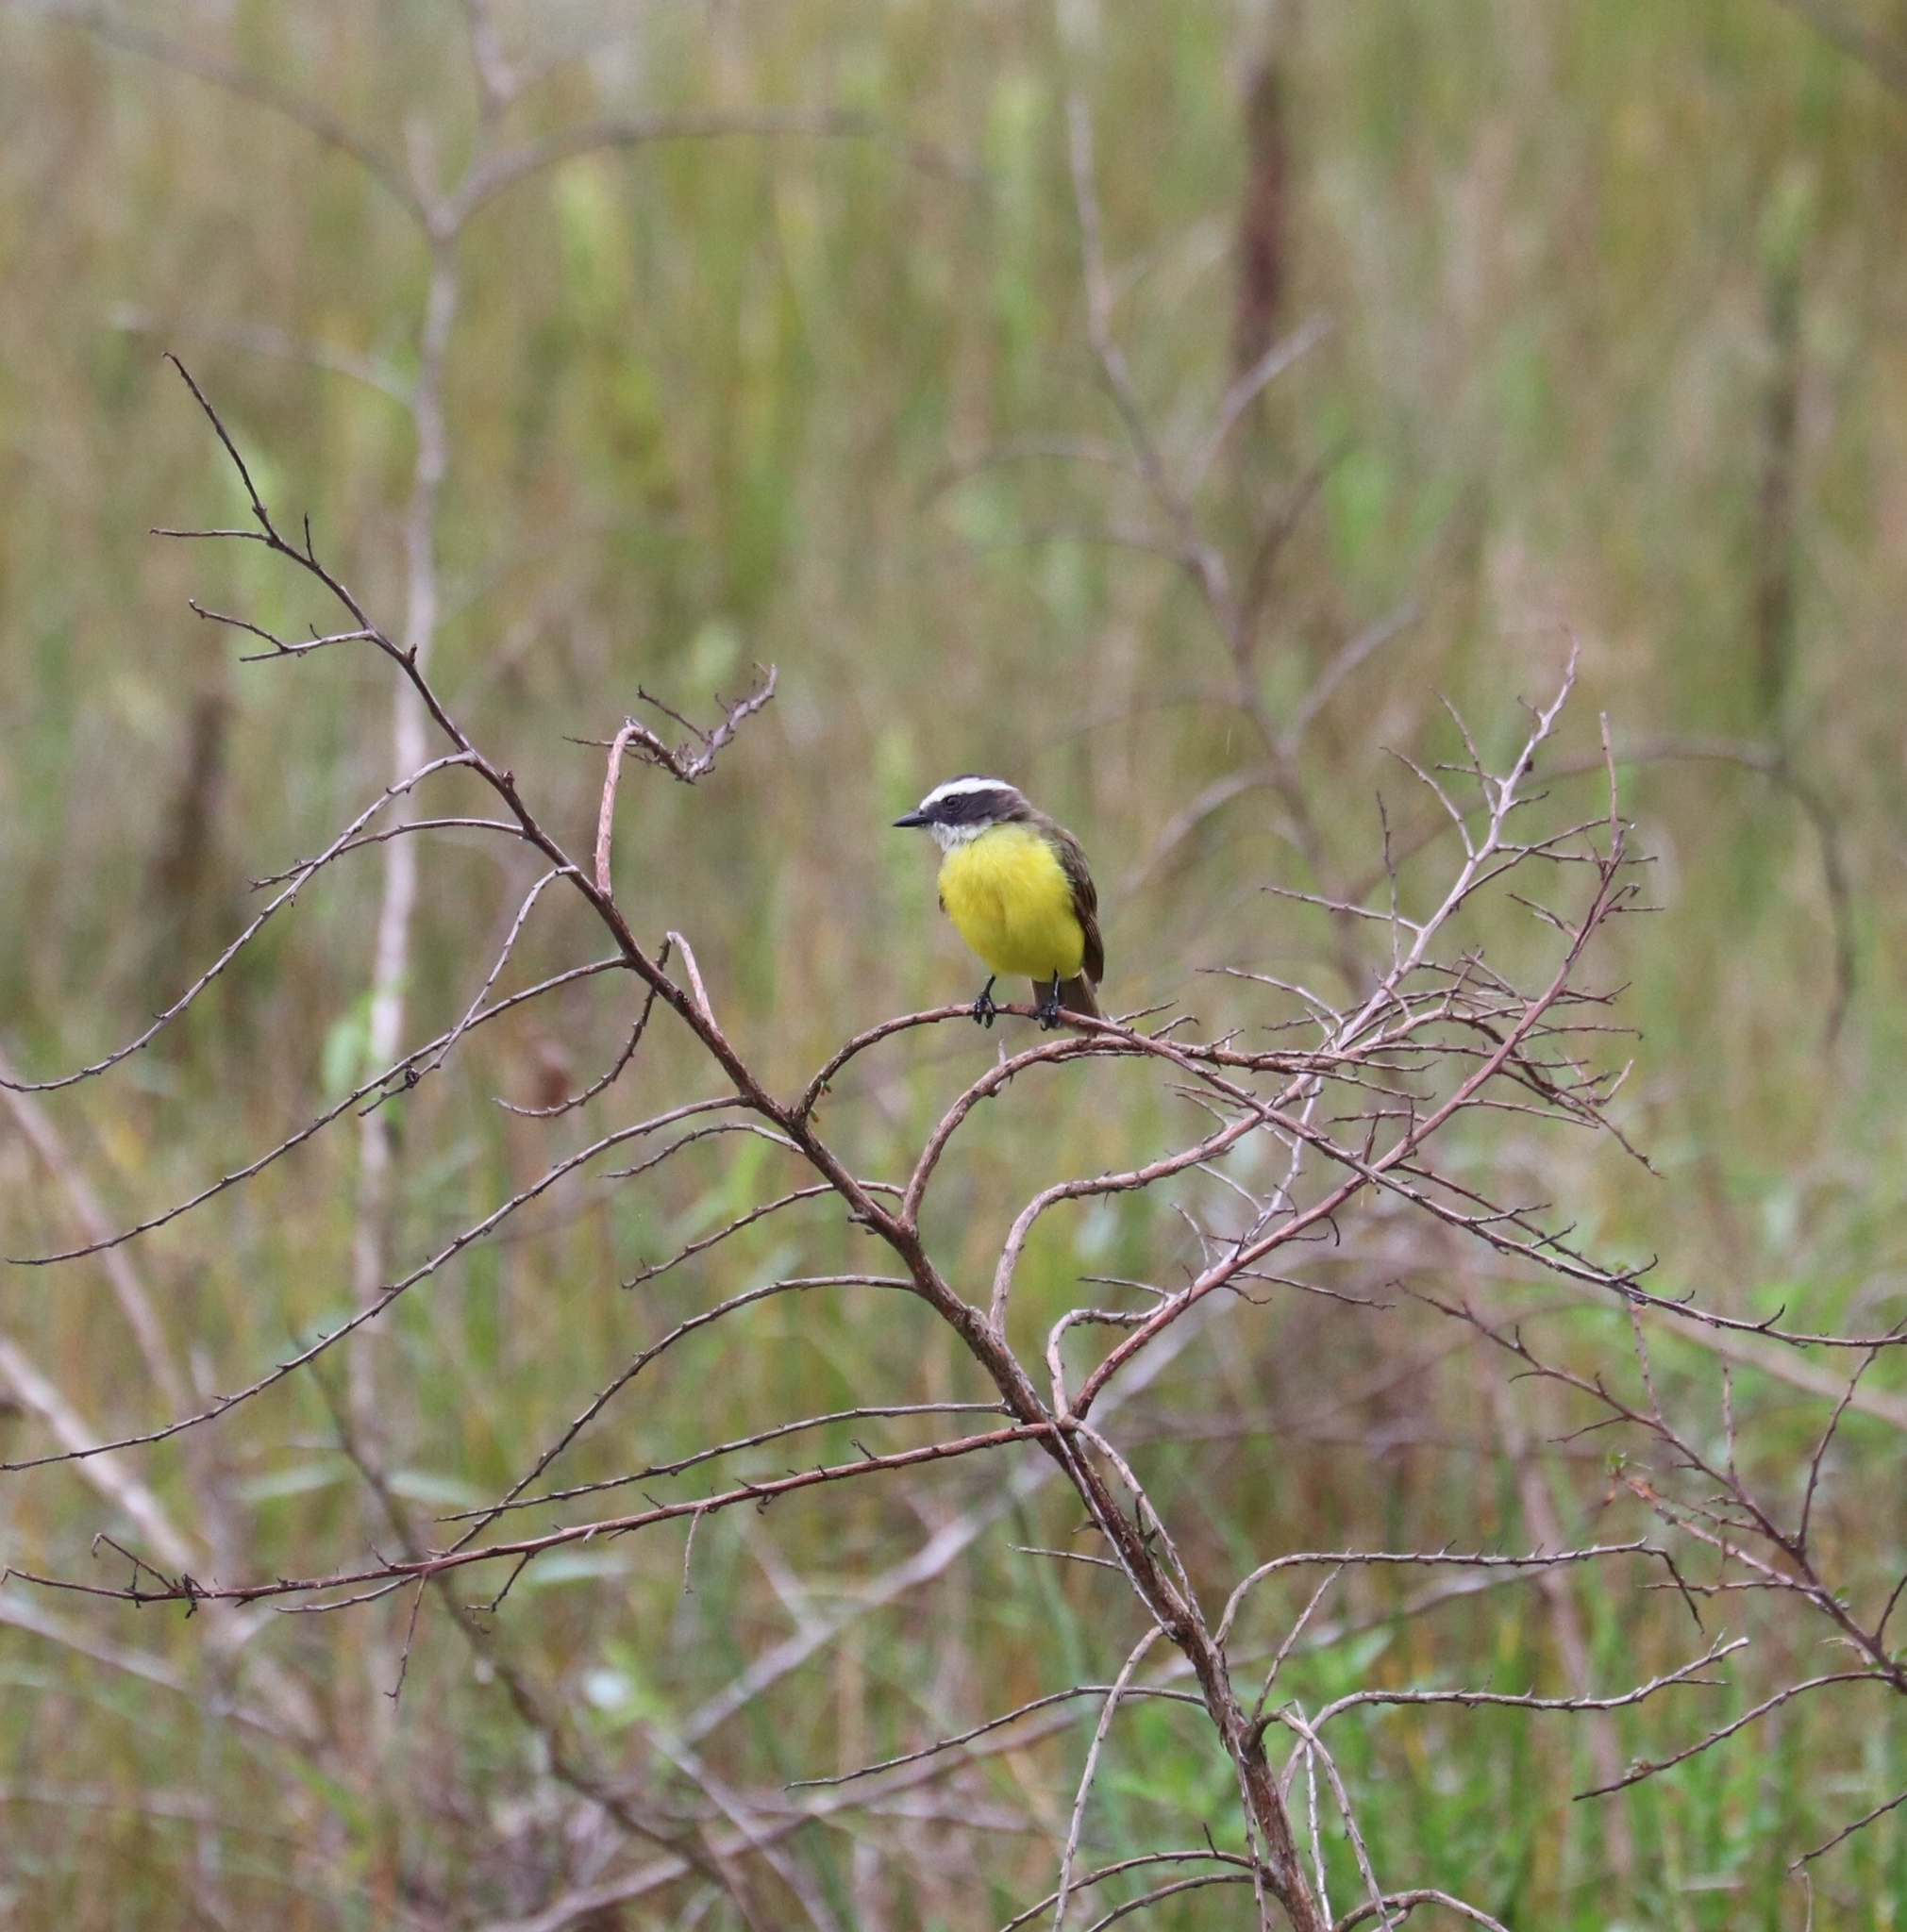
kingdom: Animalia
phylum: Chordata
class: Aves
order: Passeriformes
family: Tyrannidae
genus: Myiozetetes
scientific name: Myiozetetes similis
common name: Social flycatcher
